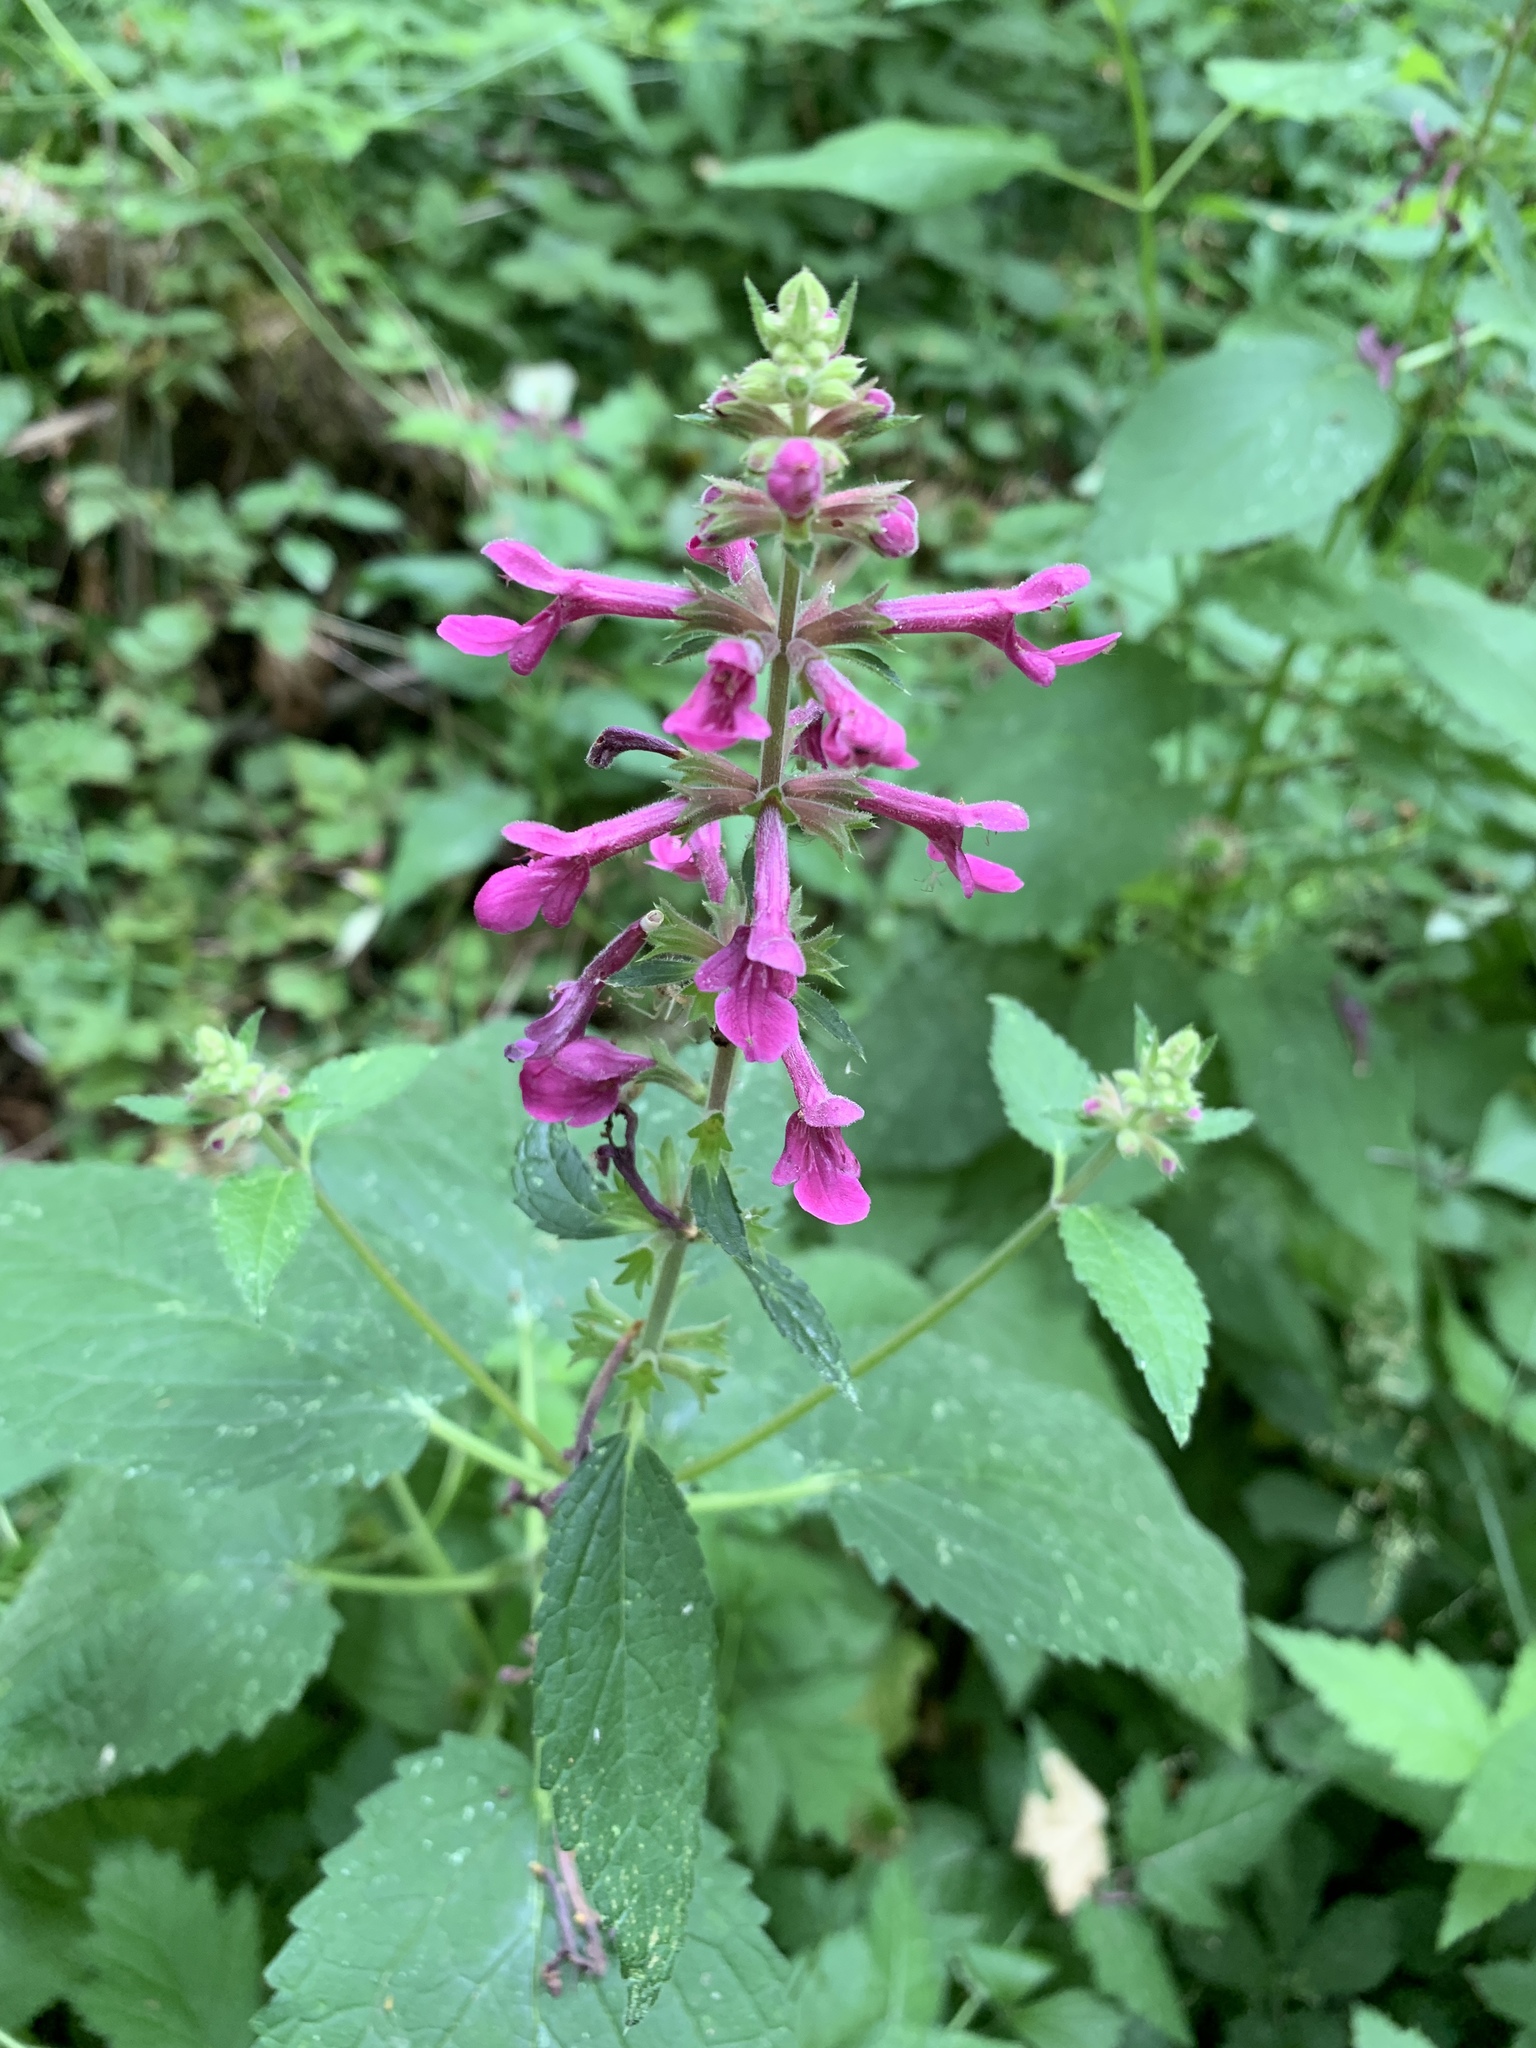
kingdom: Plantae
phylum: Tracheophyta
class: Magnoliopsida
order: Lamiales
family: Lamiaceae
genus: Stachys
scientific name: Stachys chamissonis
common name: Coastal hedge-nettle
